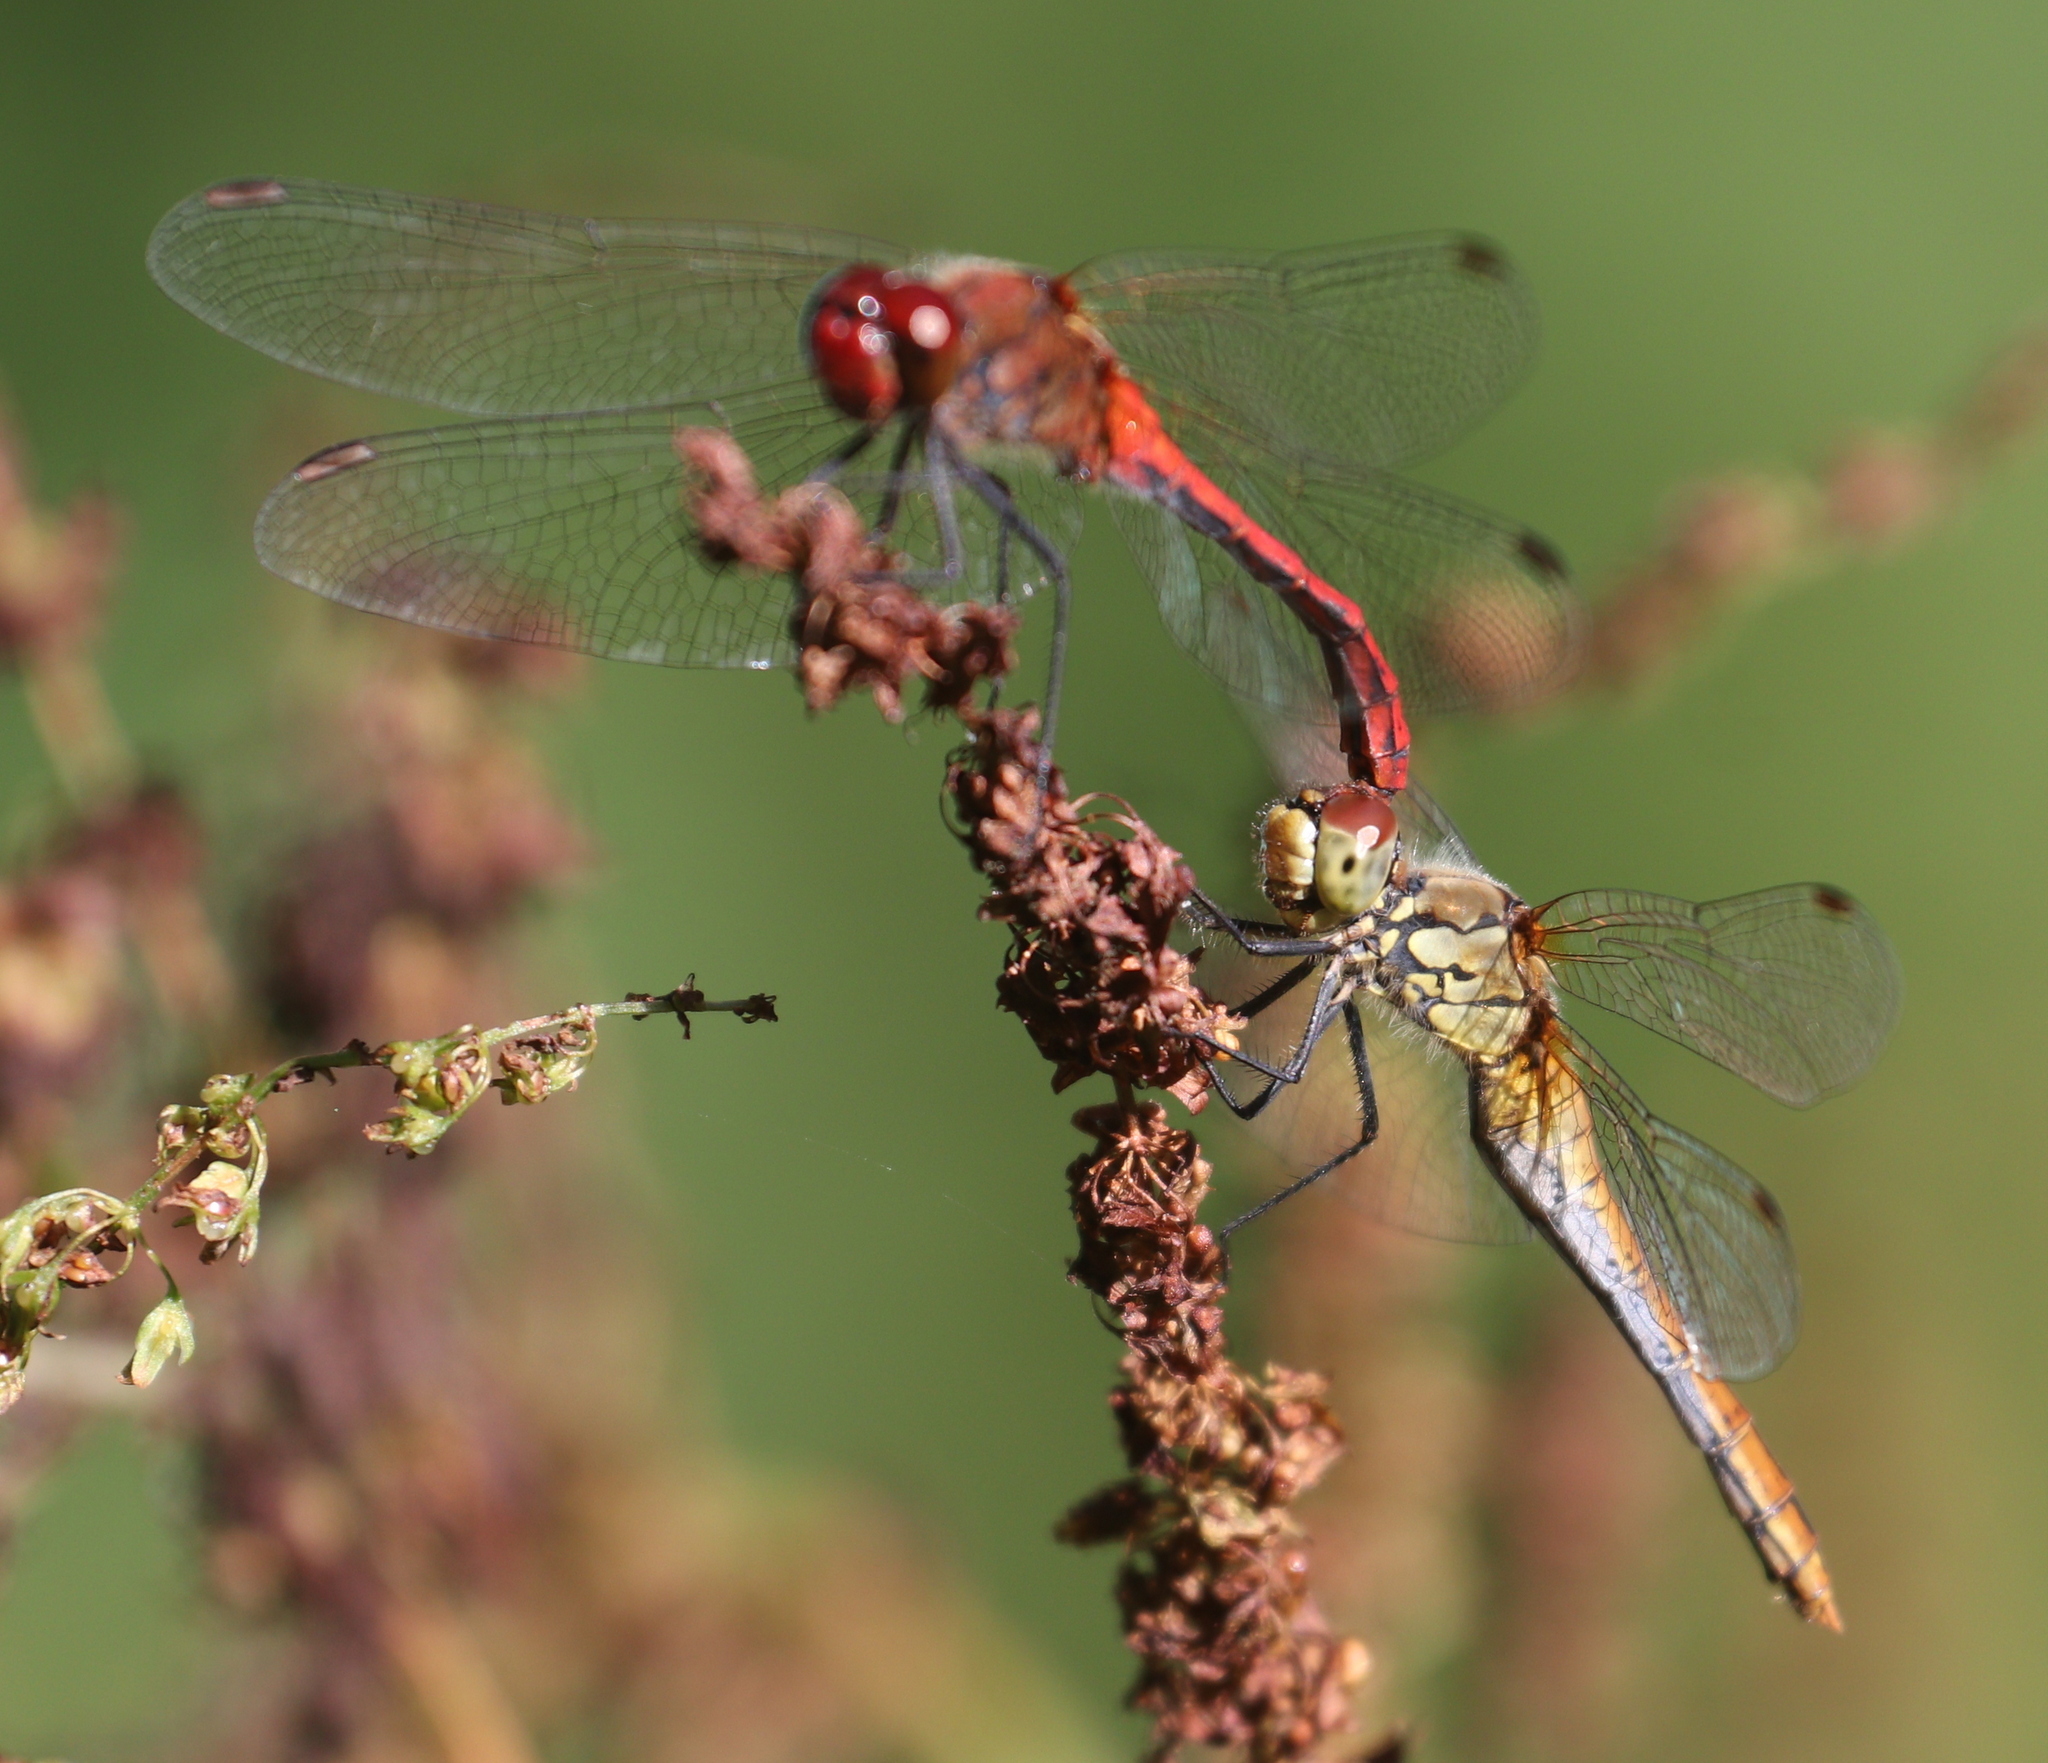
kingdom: Animalia
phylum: Arthropoda
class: Insecta
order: Odonata
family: Libellulidae
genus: Sympetrum
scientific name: Sympetrum sanguineum
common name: Ruddy darter
